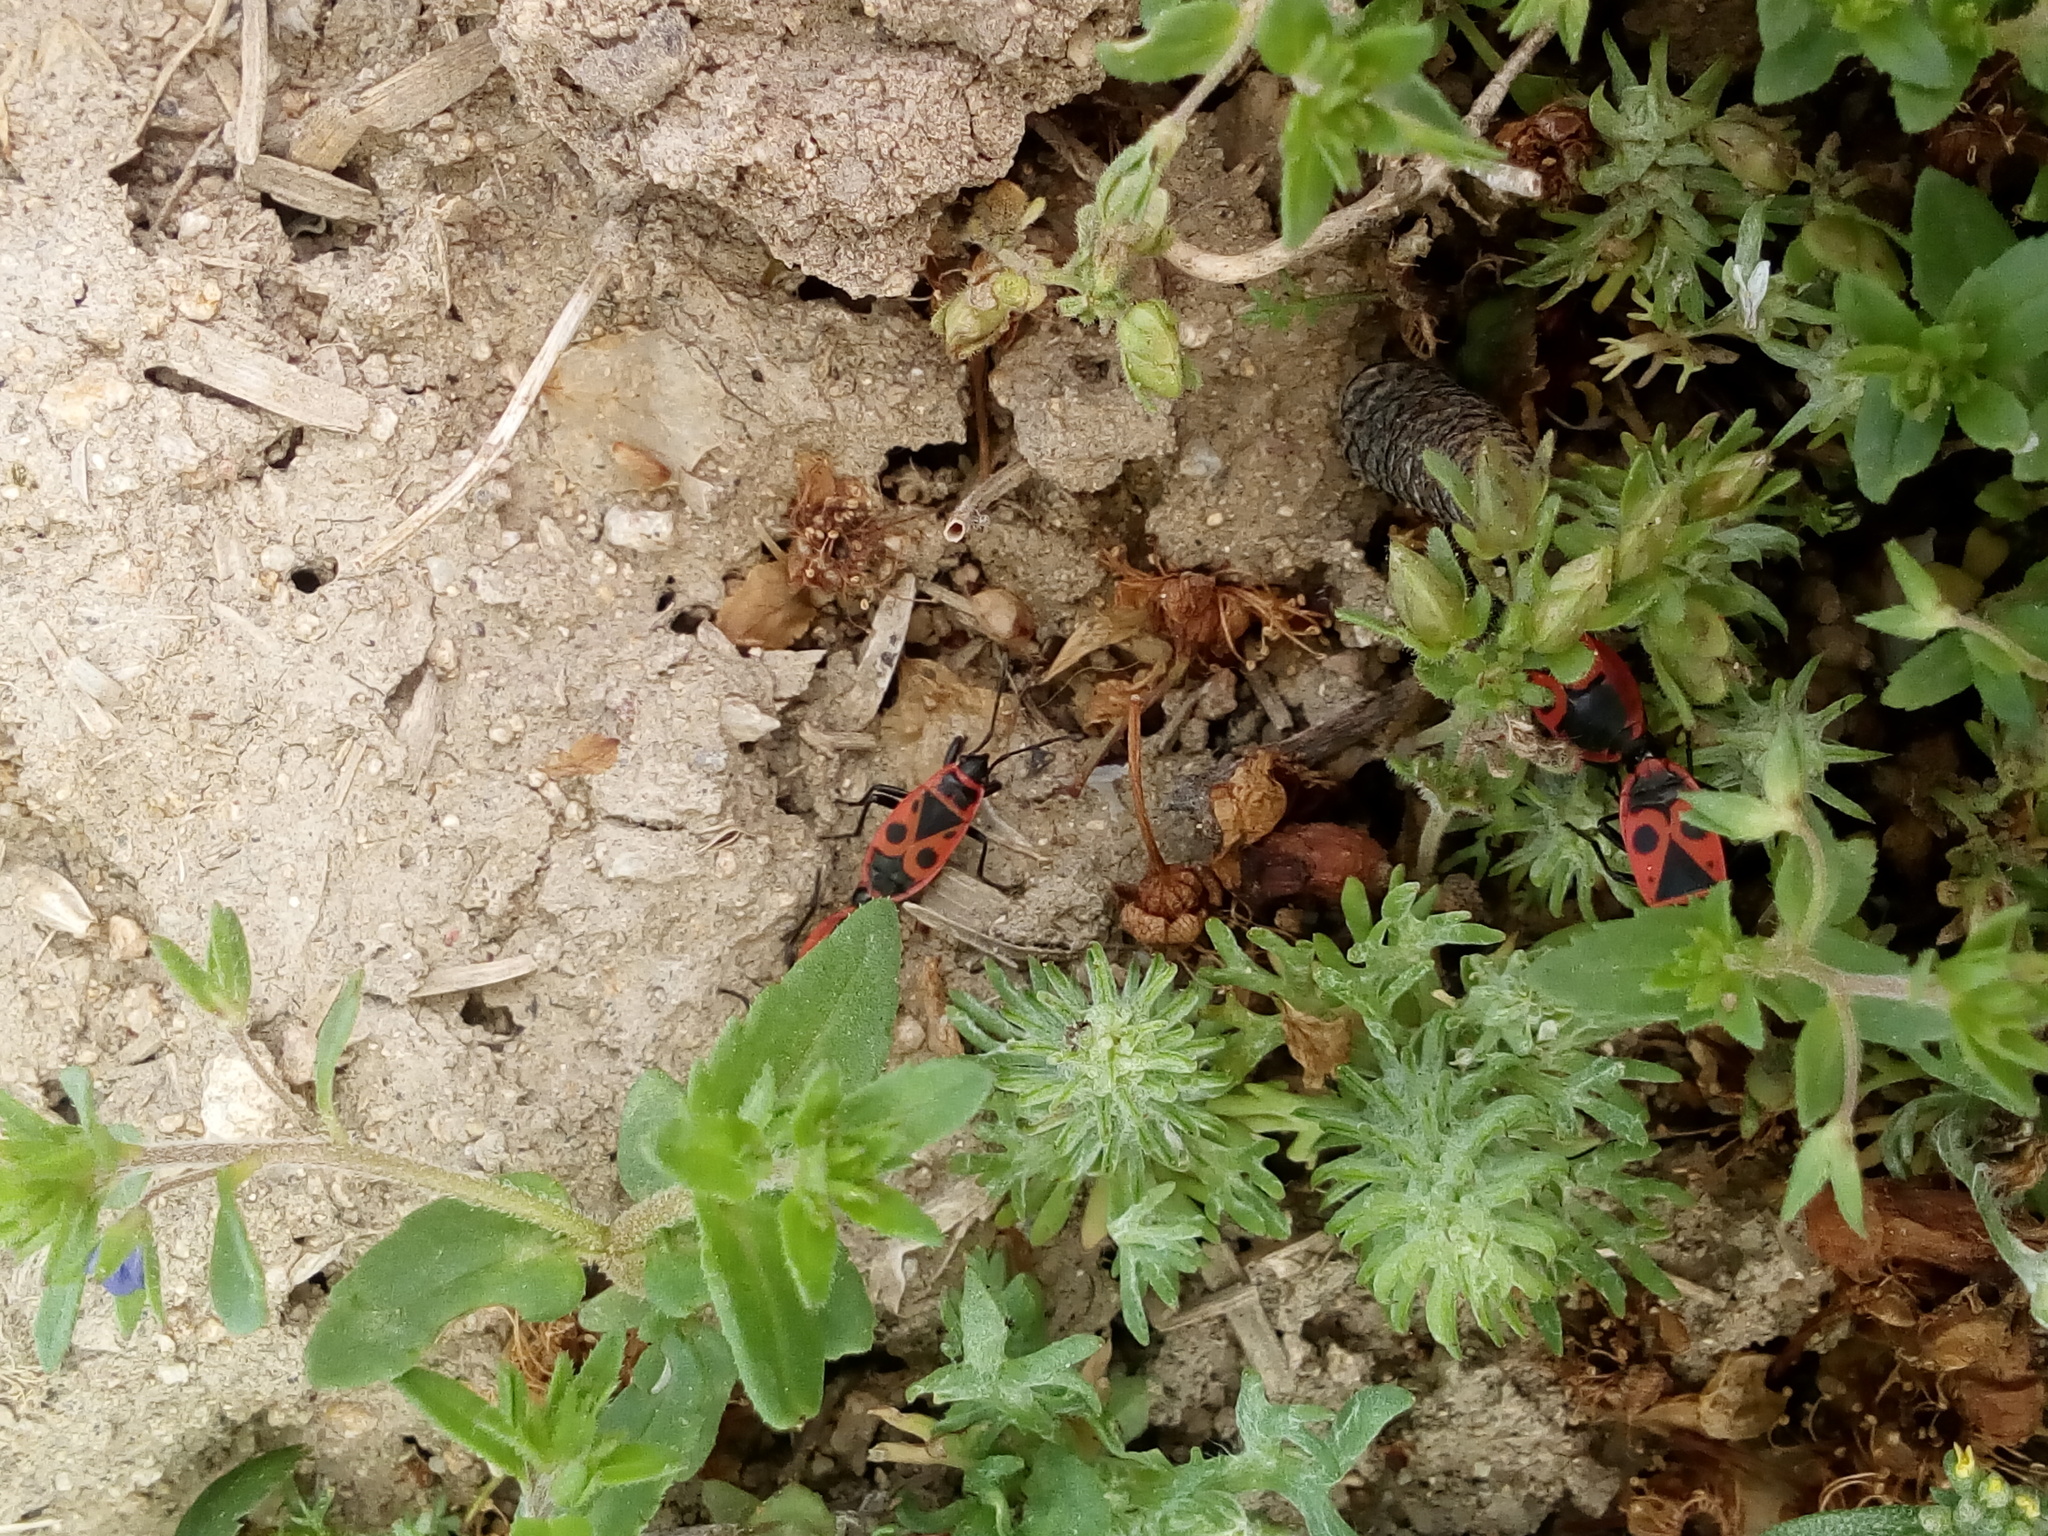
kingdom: Animalia
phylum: Arthropoda
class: Insecta
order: Hemiptera
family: Pyrrhocoridae
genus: Pyrrhocoris
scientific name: Pyrrhocoris apterus
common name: Firebug
